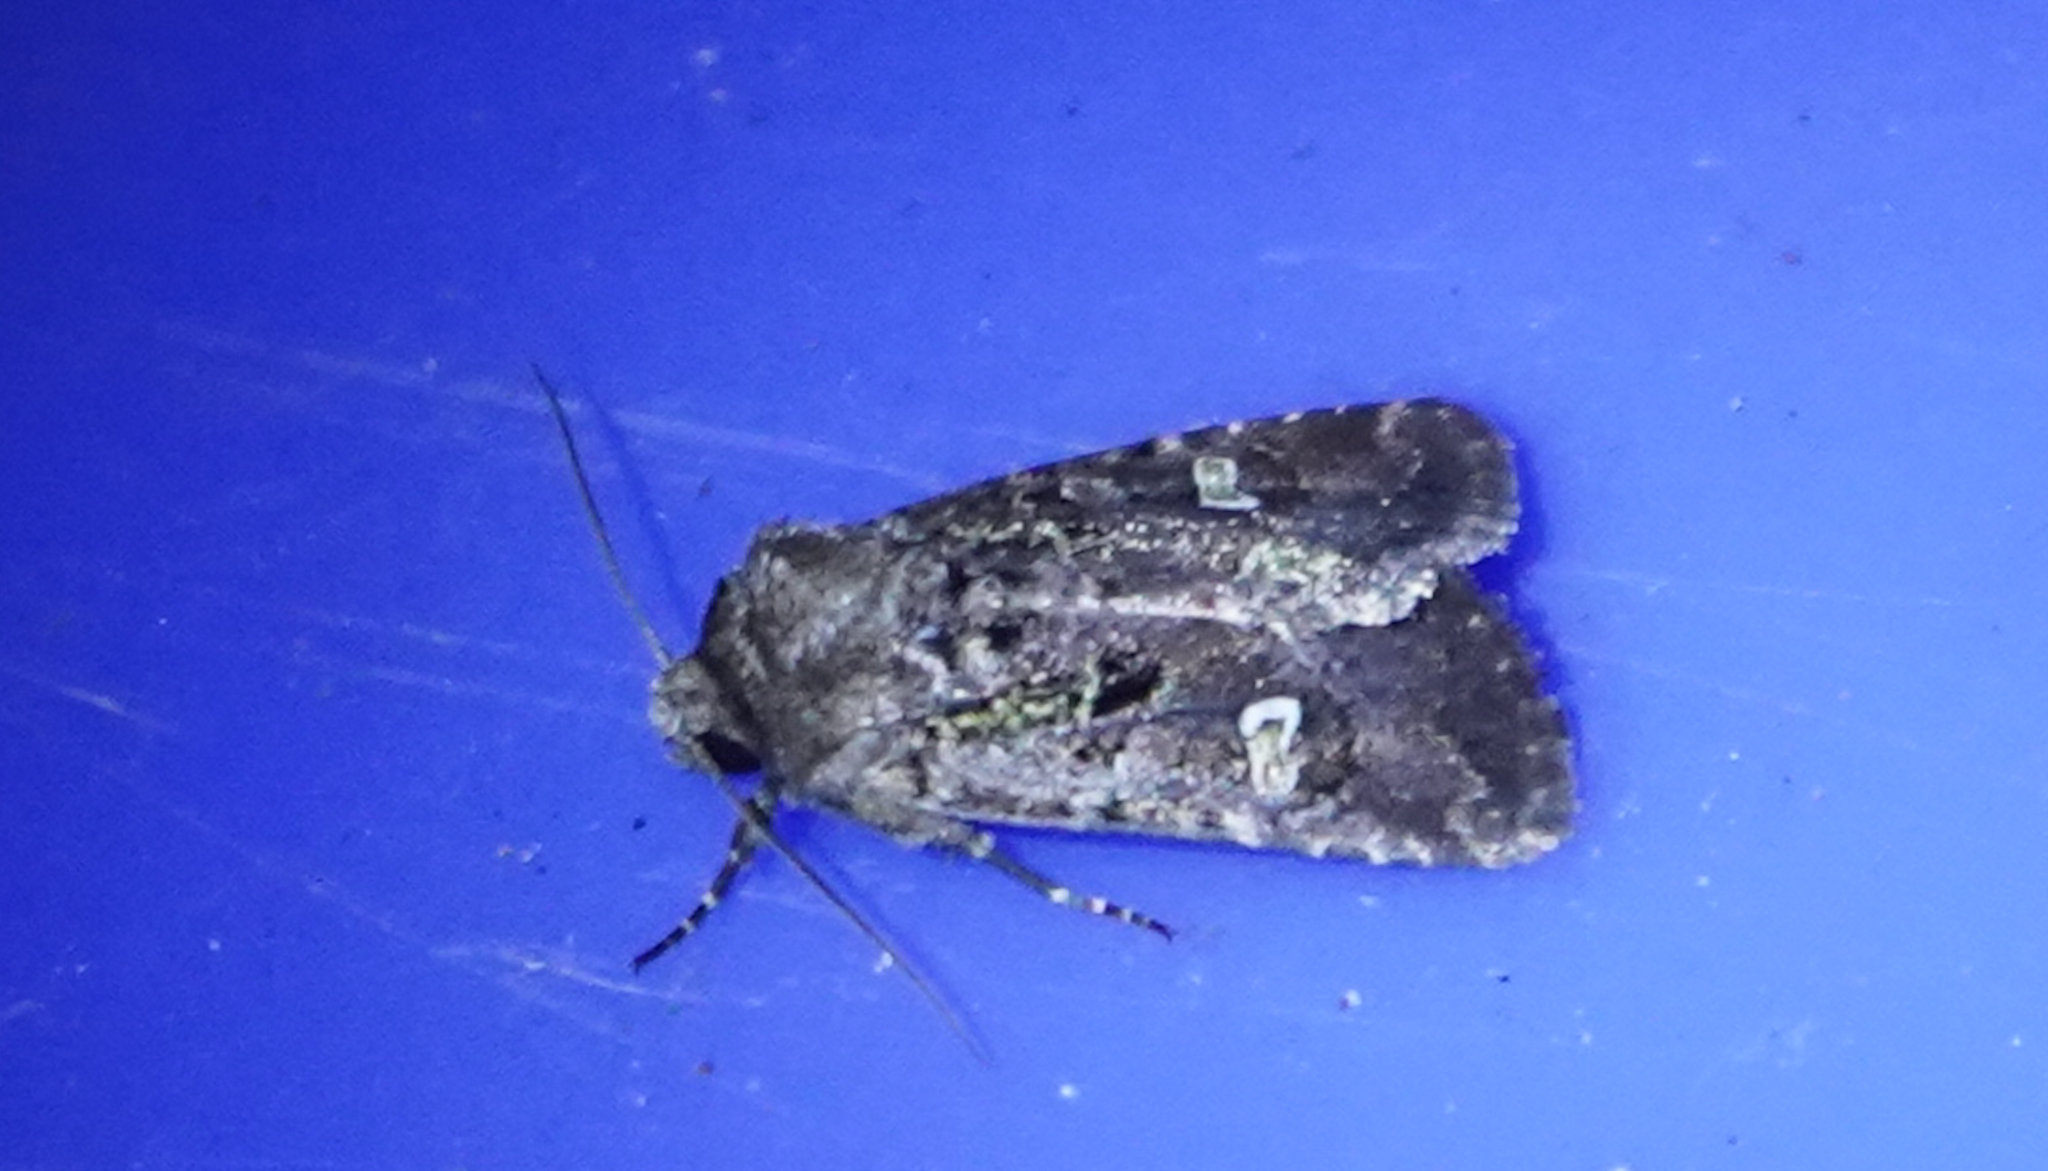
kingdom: Animalia
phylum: Arthropoda
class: Insecta
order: Lepidoptera
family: Noctuidae
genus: Lacinipolia
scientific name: Lacinipolia renigera
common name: Kidney-spotted minor
